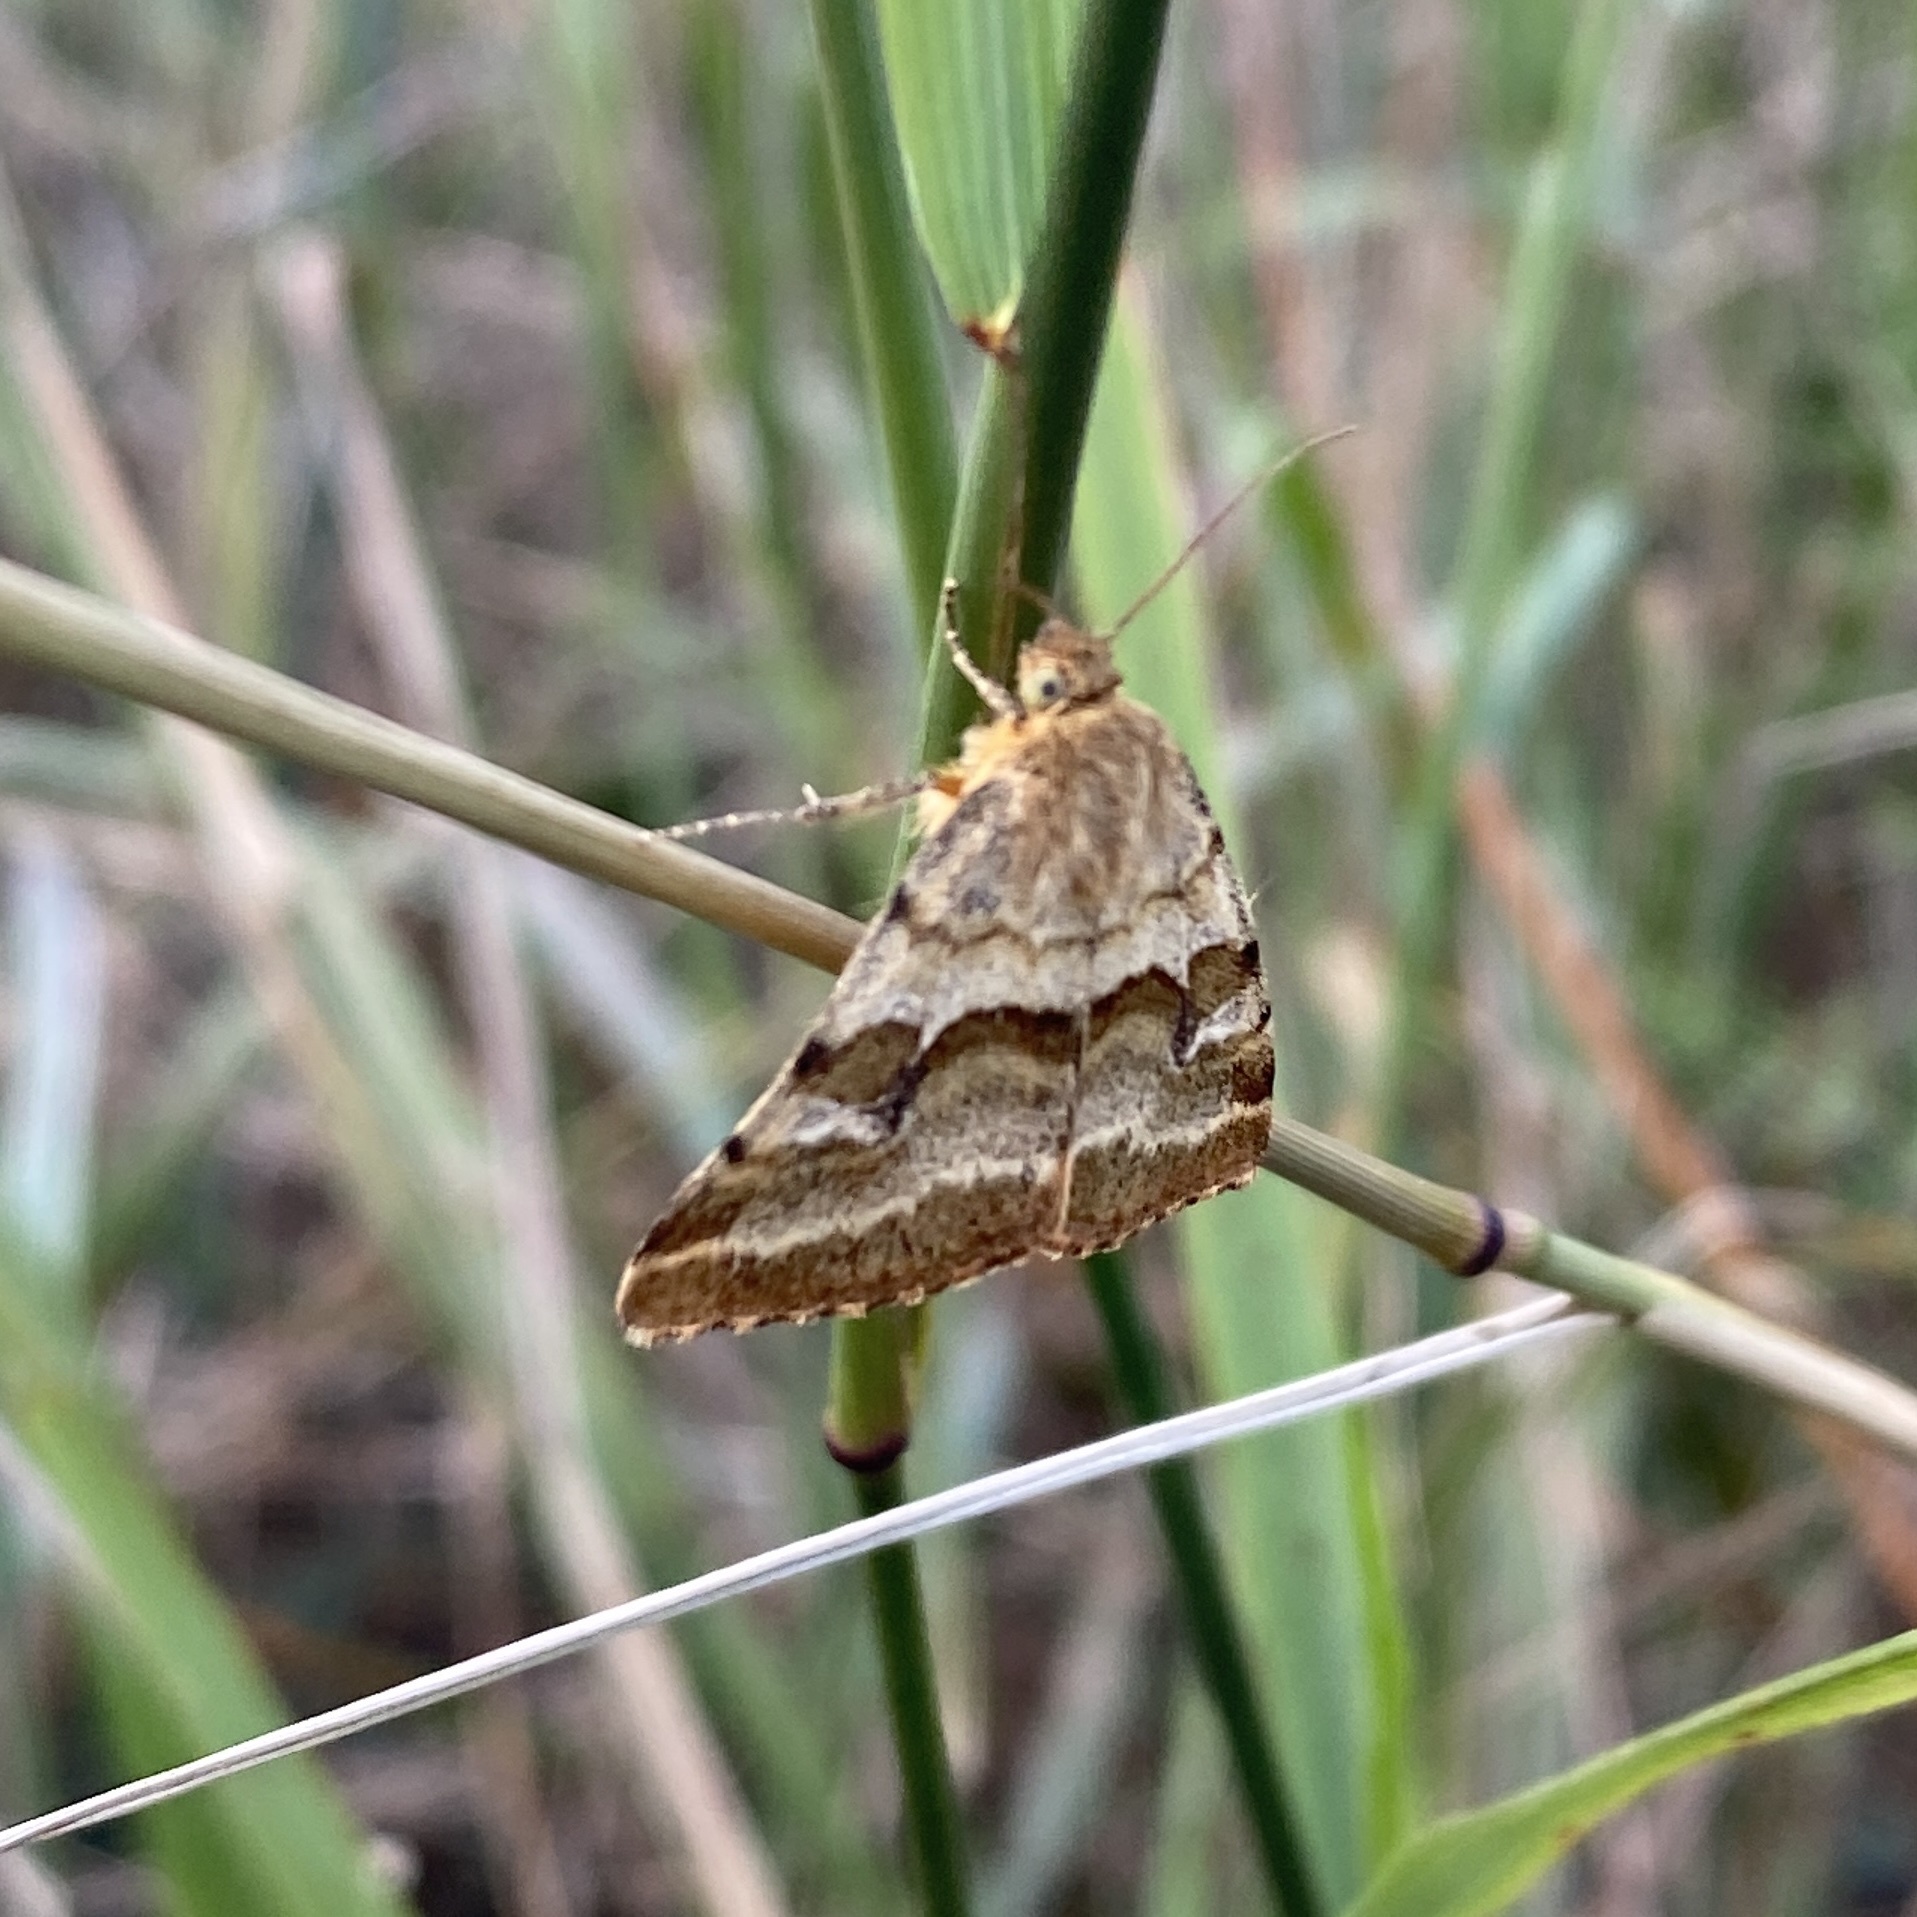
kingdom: Animalia
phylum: Arthropoda
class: Insecta
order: Lepidoptera
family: Noctuidae
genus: Synthymia
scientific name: Synthymia fixa
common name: Goldwing
